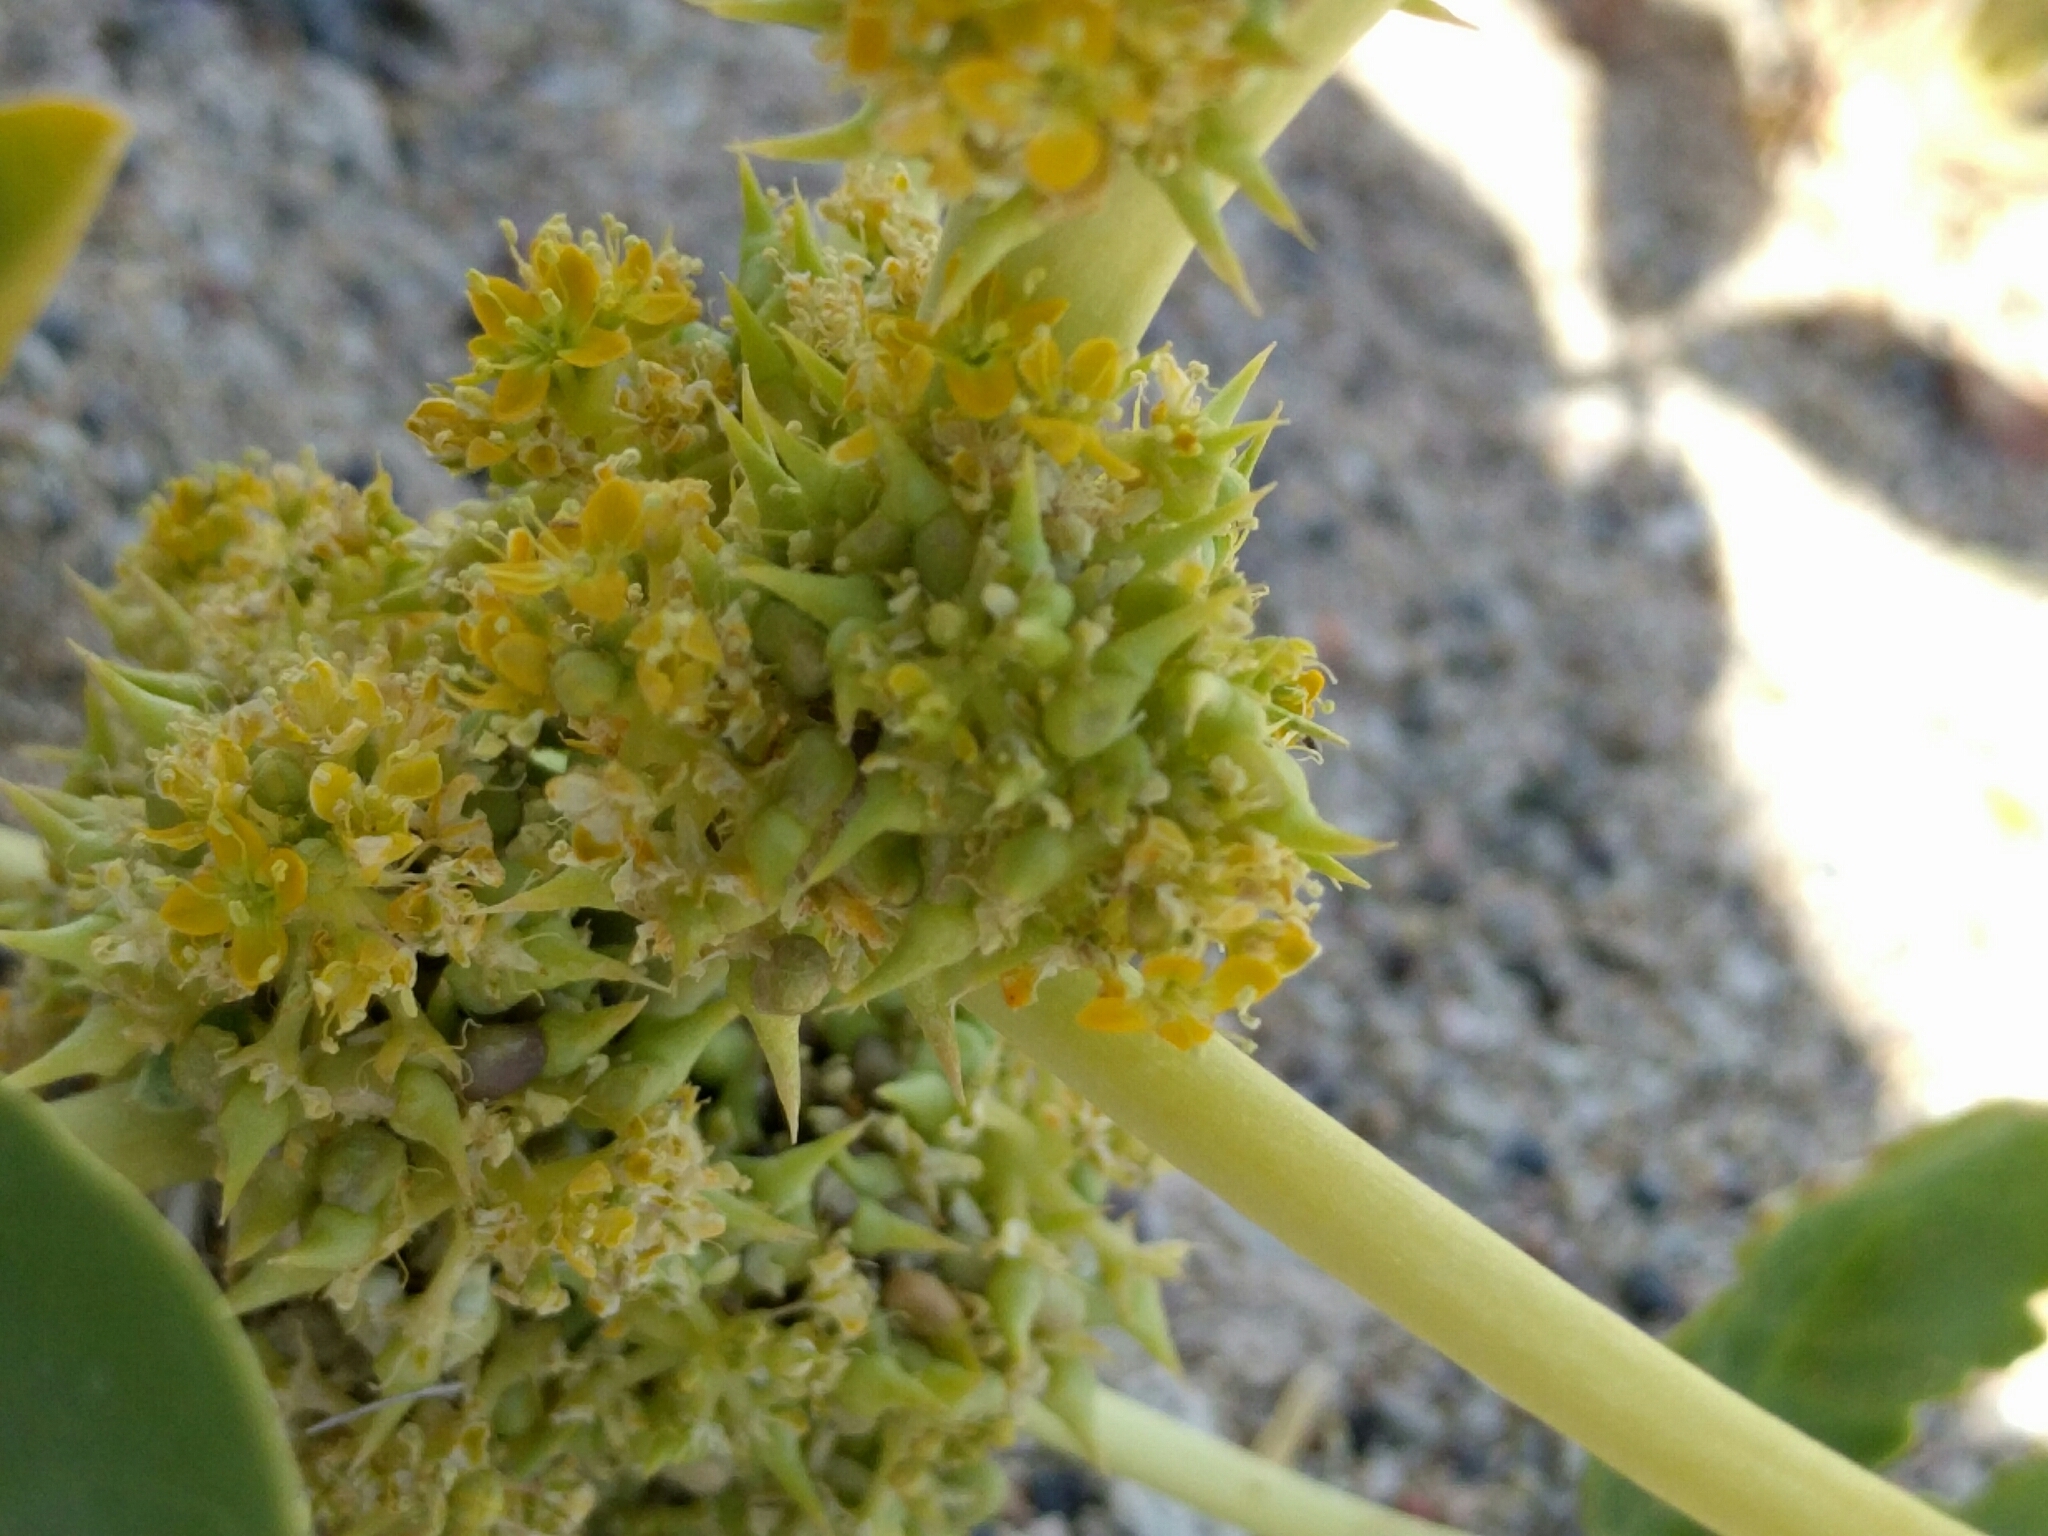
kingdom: Plantae
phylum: Tracheophyta
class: Magnoliopsida
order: Brassicales
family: Cleomaceae
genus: Cleomella
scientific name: Cleomella oxystyloides
